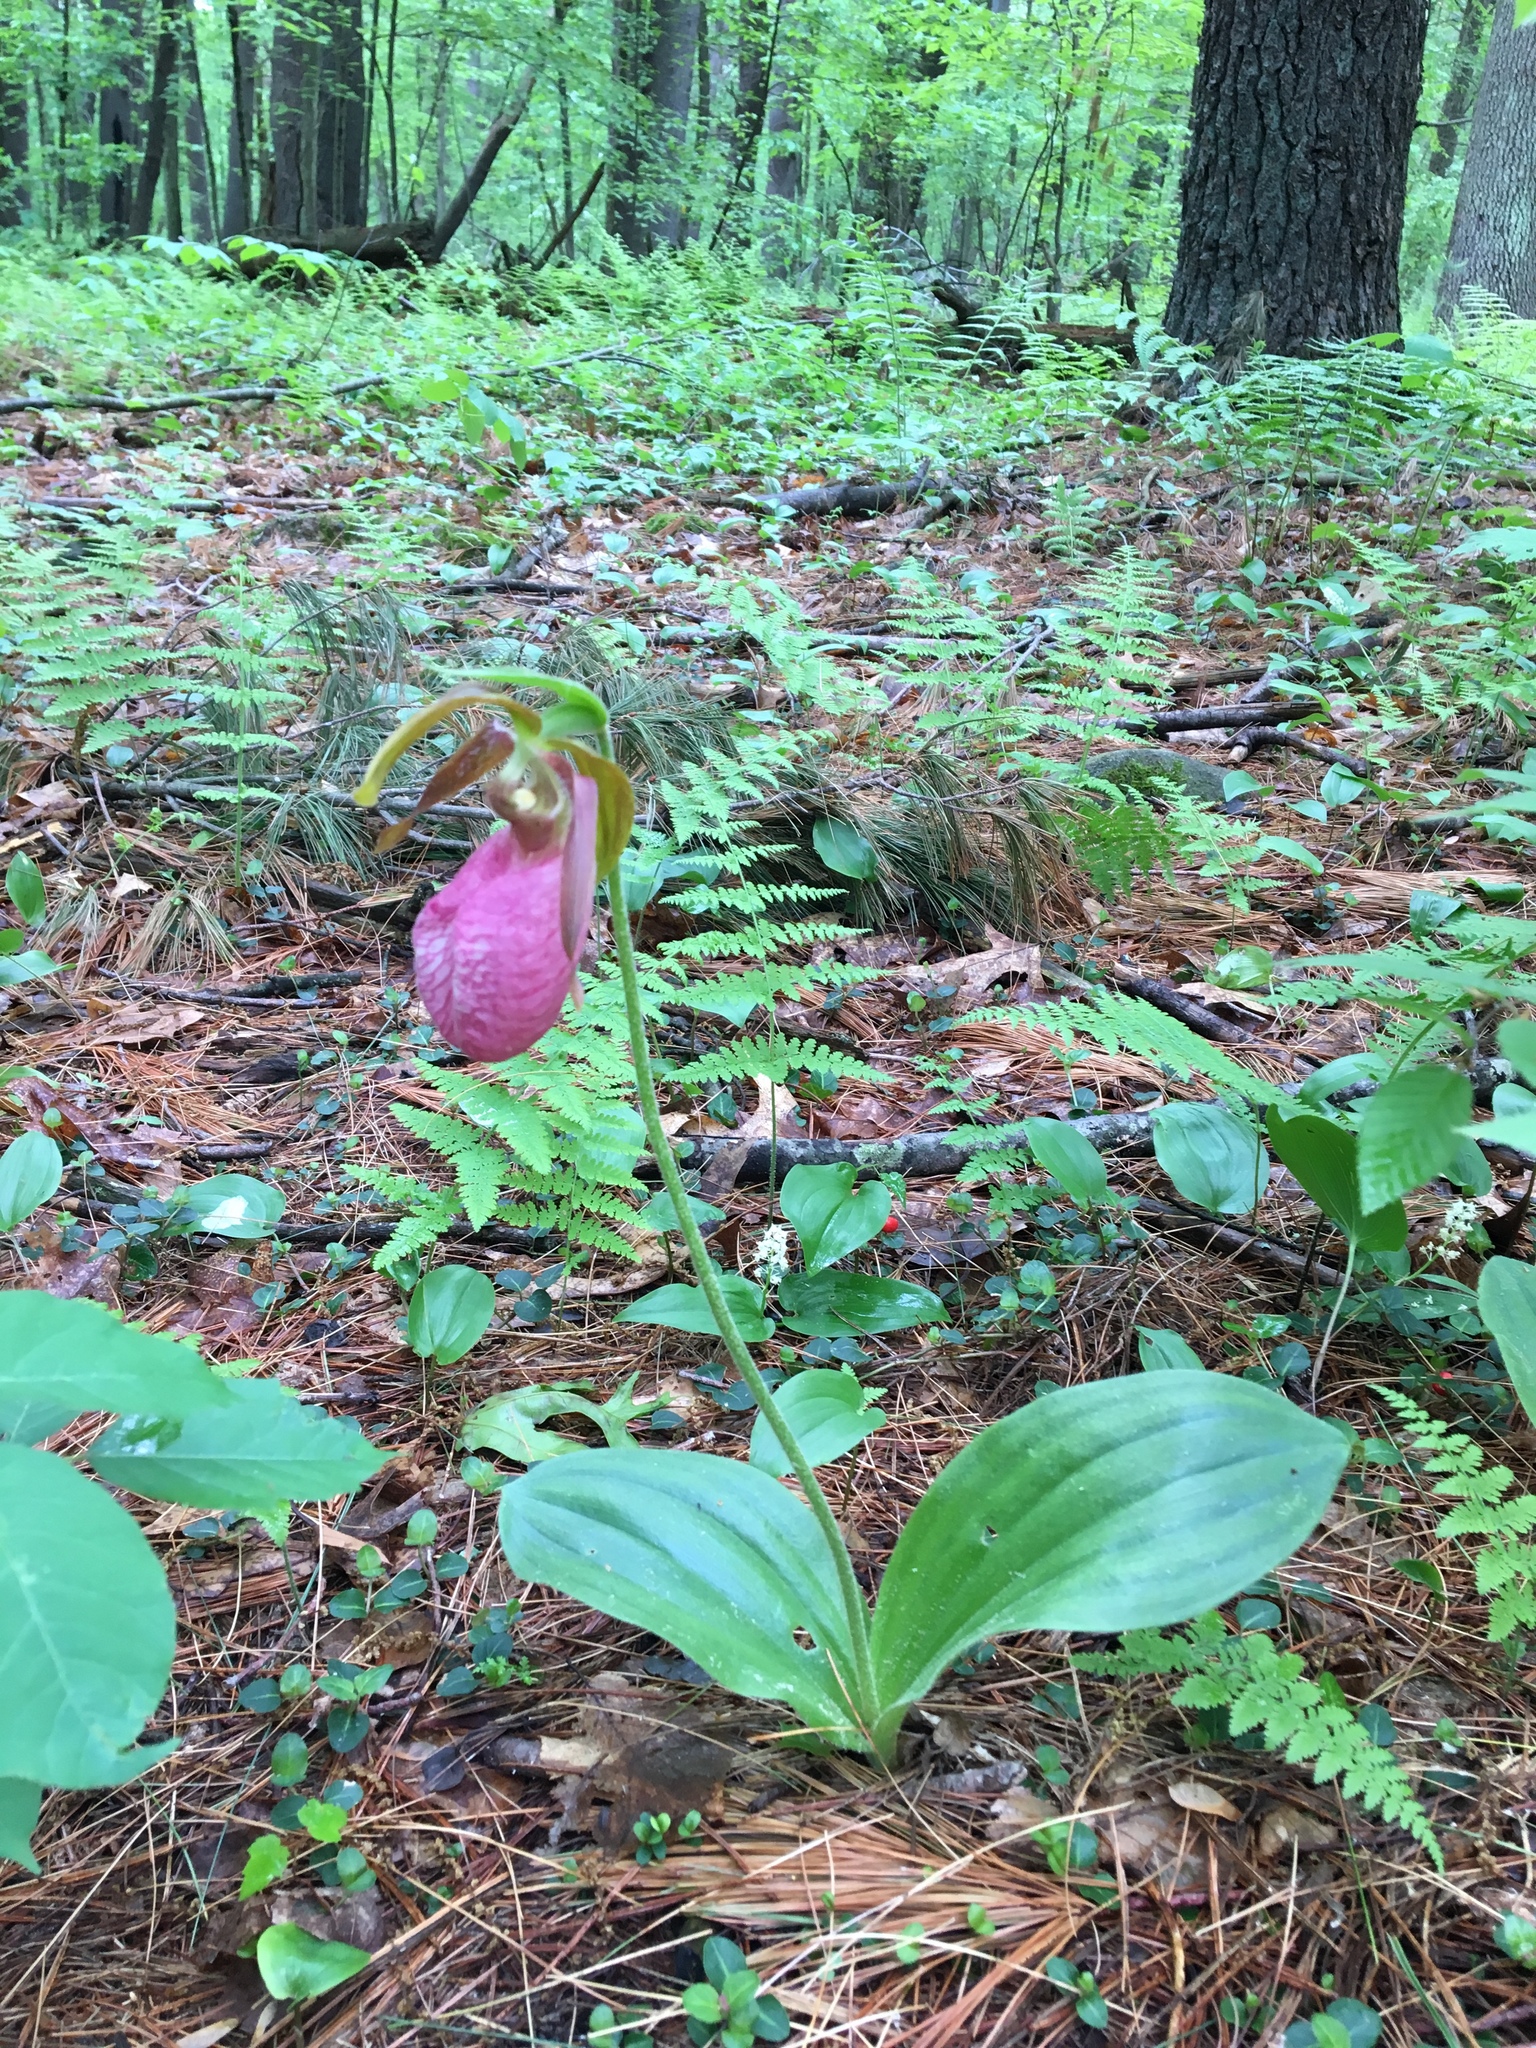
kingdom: Plantae
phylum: Tracheophyta
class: Liliopsida
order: Asparagales
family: Orchidaceae
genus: Cypripedium
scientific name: Cypripedium acaule
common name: Pink lady's-slipper
